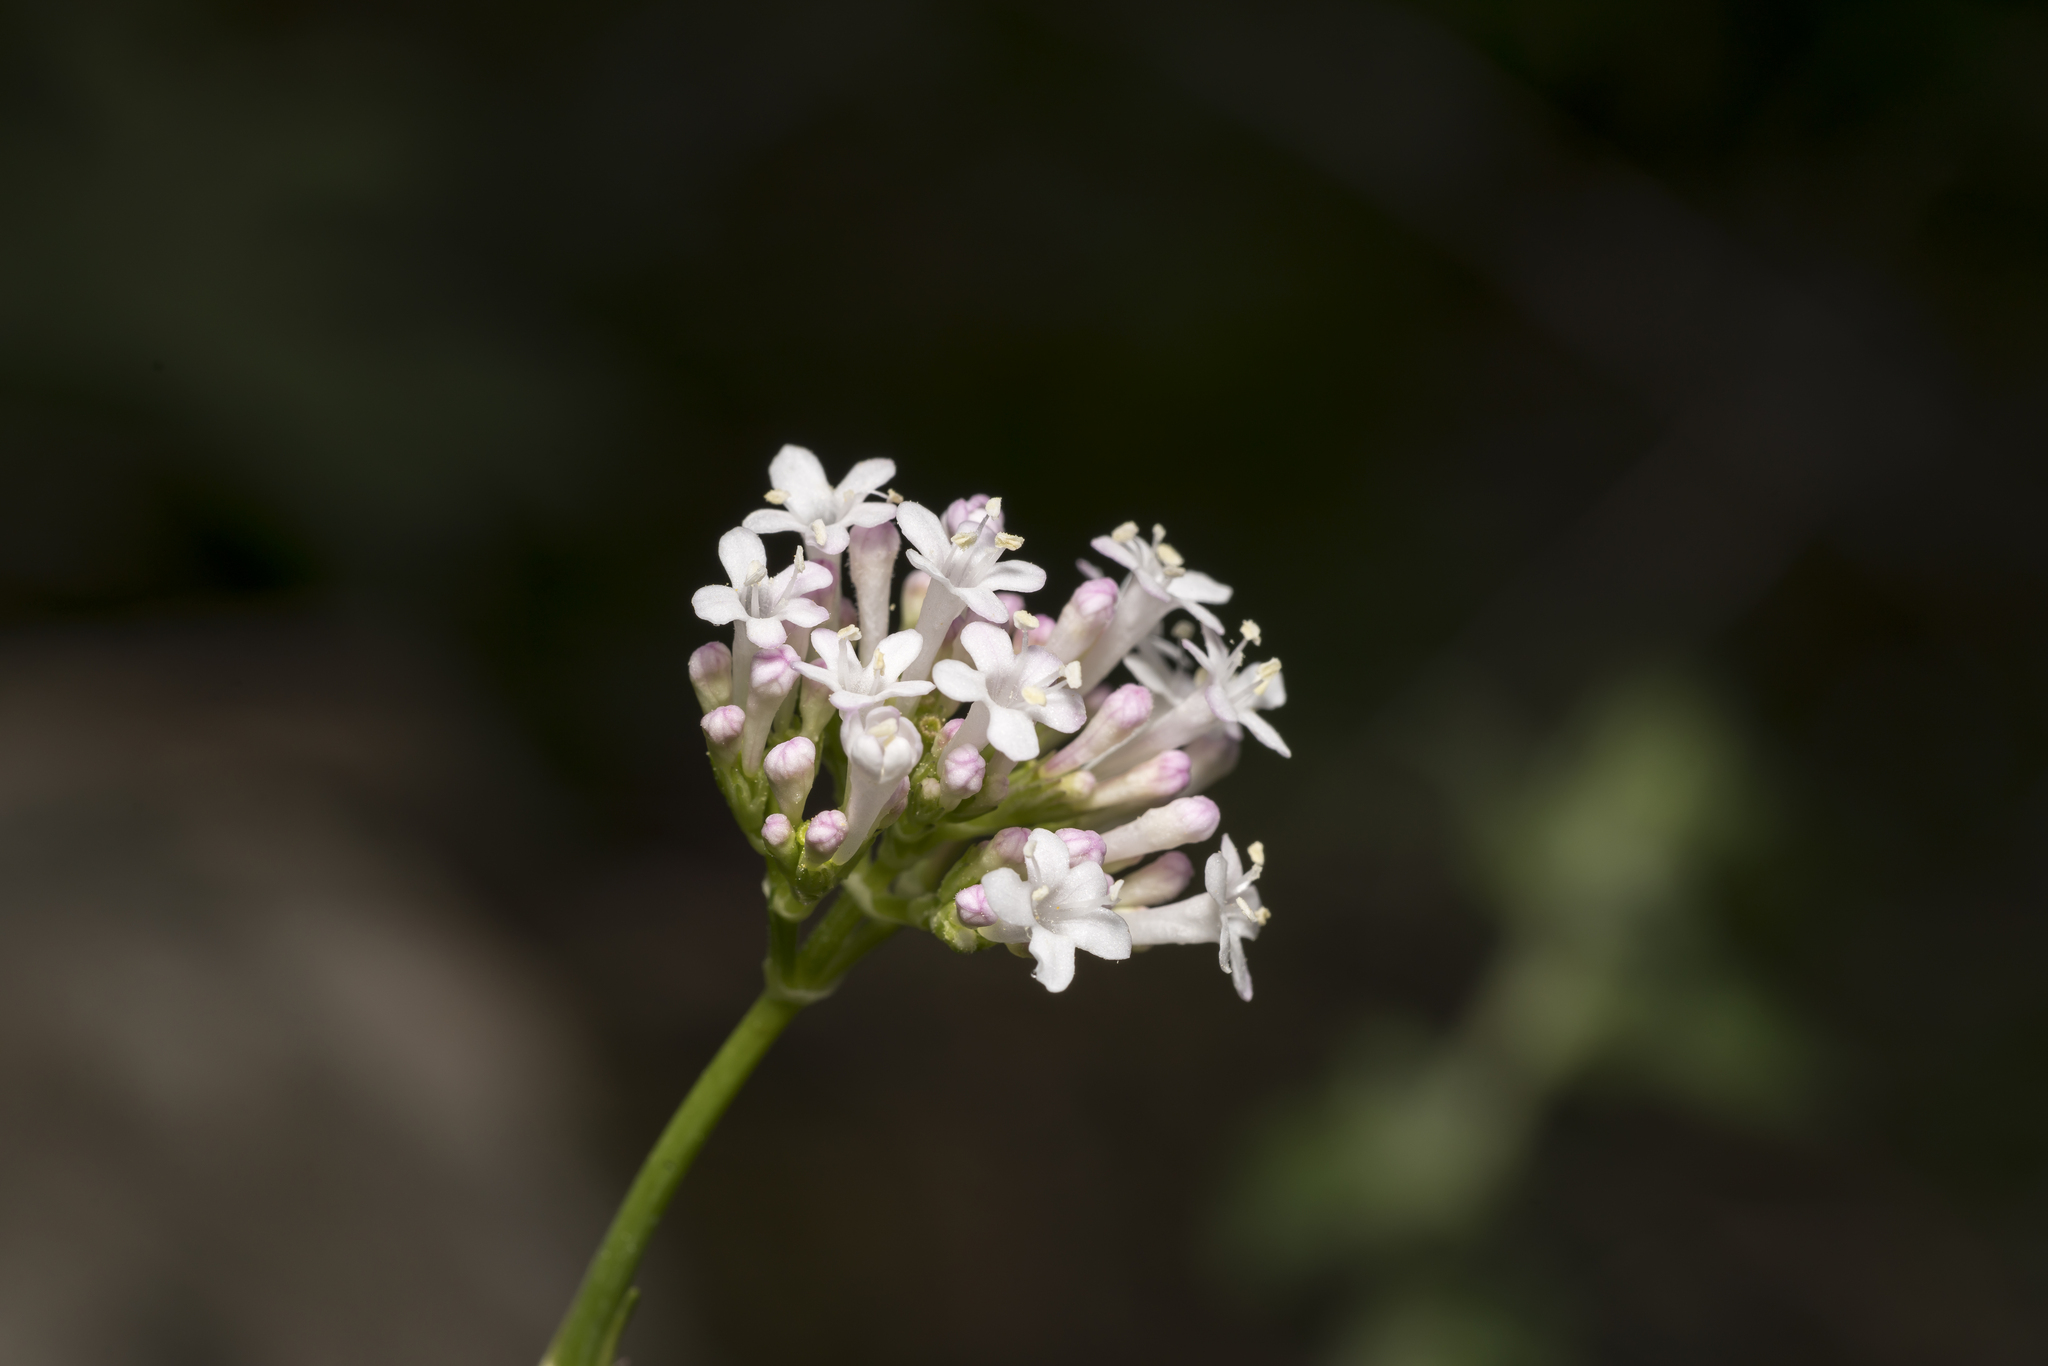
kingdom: Plantae
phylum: Tracheophyta
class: Magnoliopsida
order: Dipsacales
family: Caprifoliaceae
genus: Valeriana
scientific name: Valeriana dioscoridis
